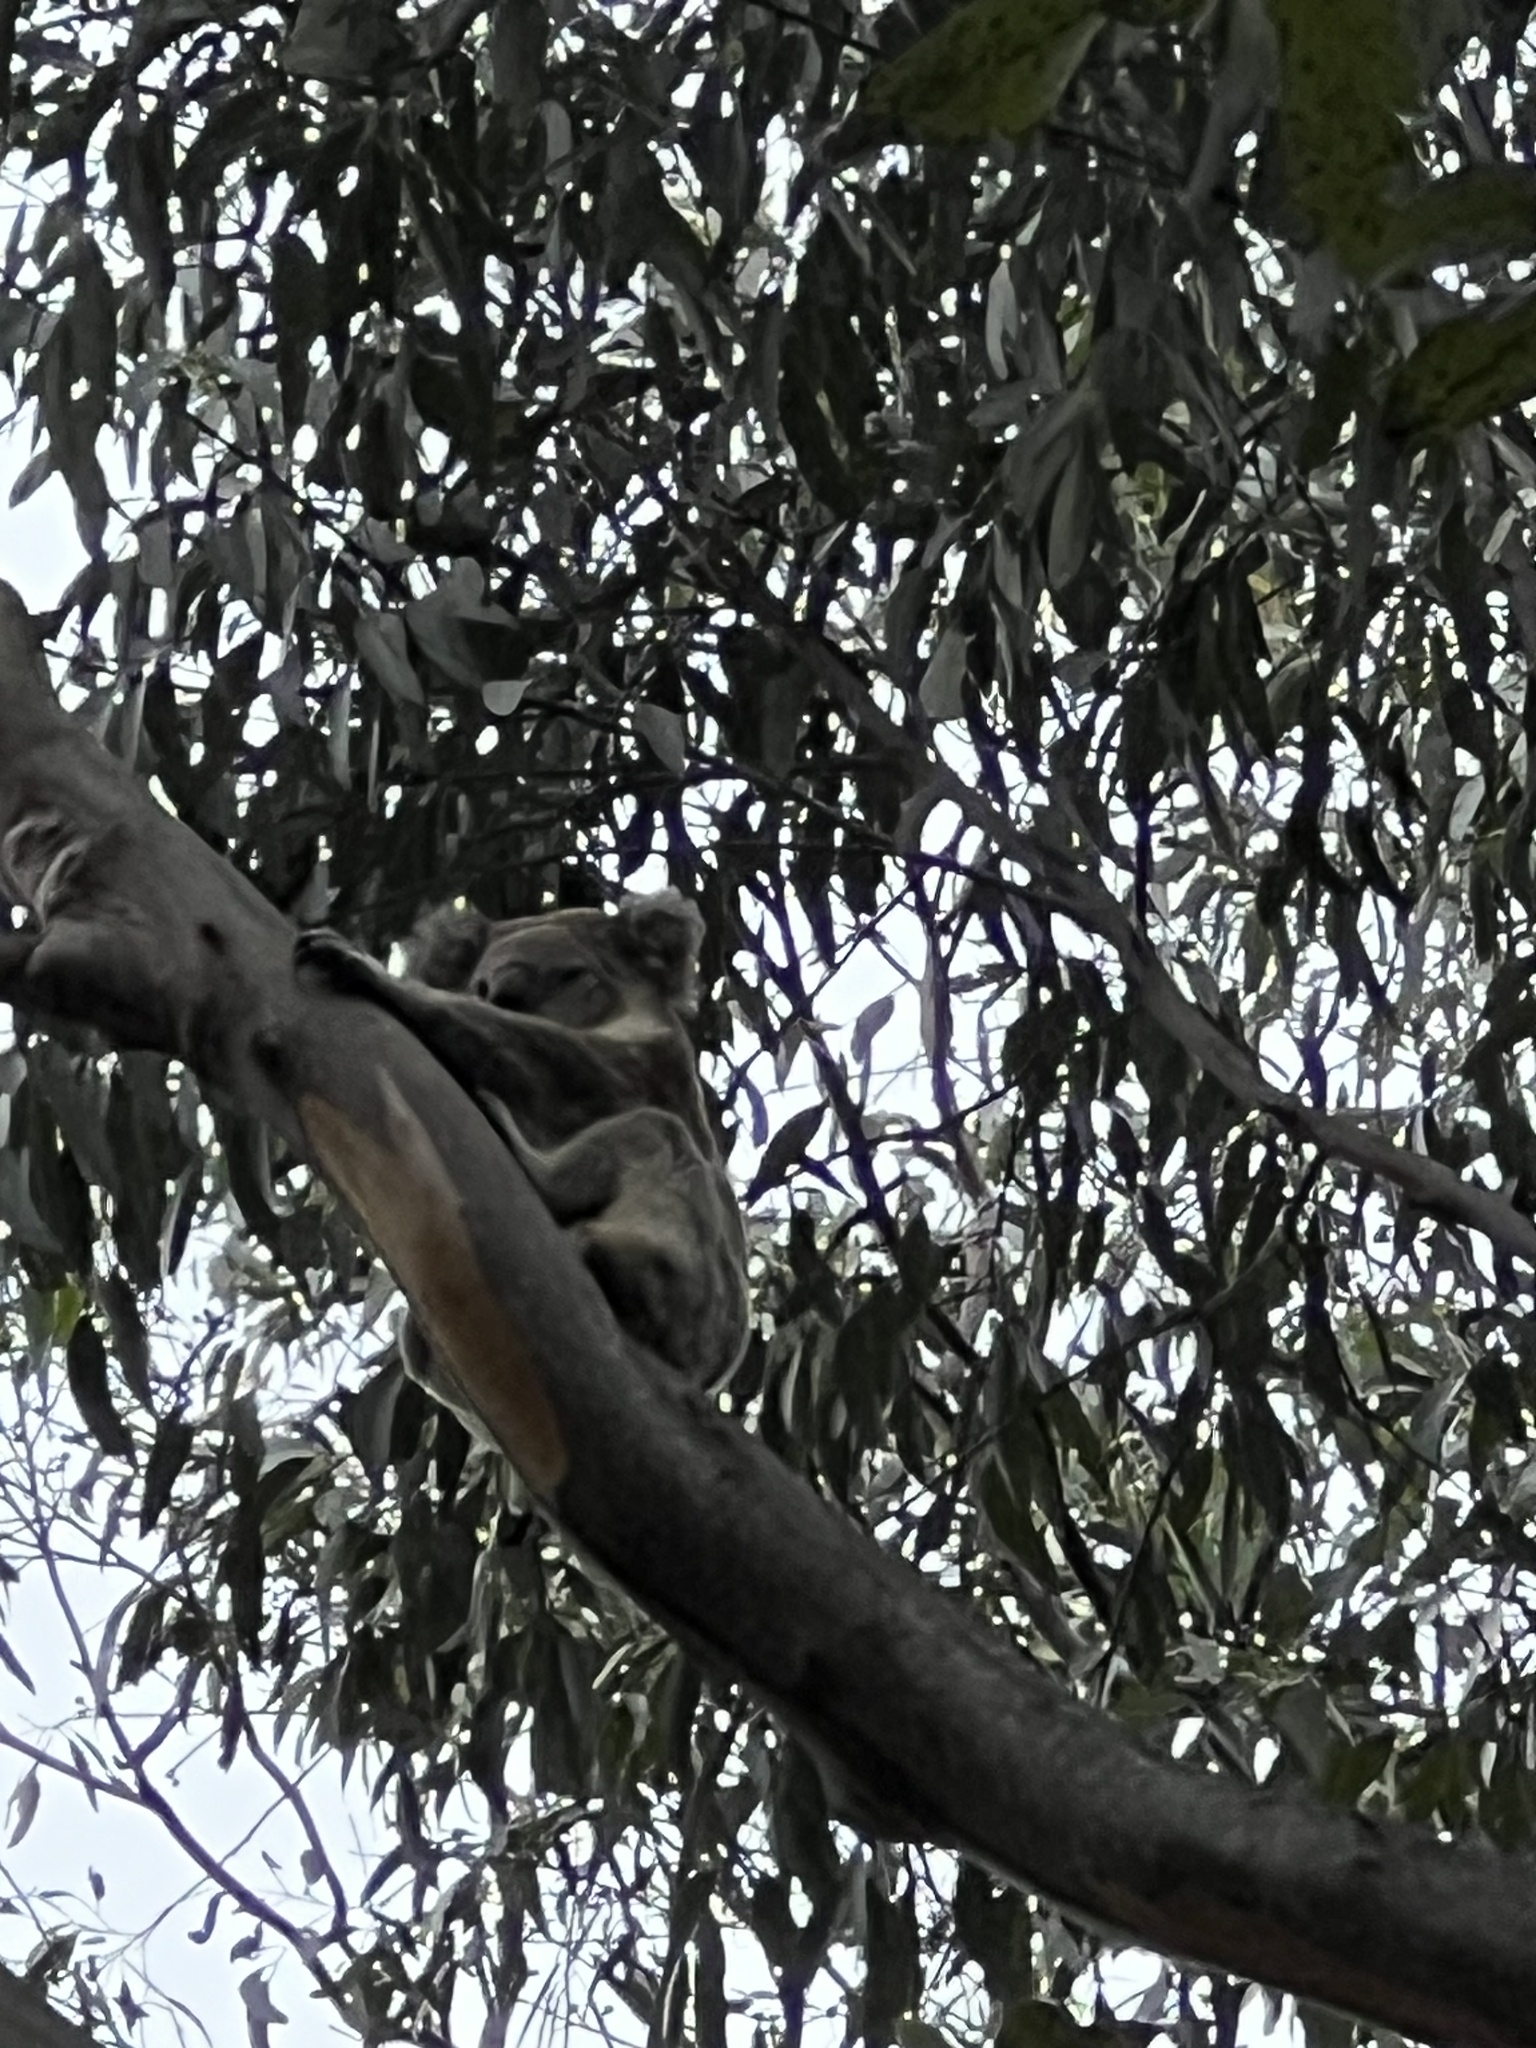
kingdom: Animalia
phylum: Chordata
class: Mammalia
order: Diprotodontia
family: Phascolarctidae
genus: Phascolarctos
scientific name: Phascolarctos cinereus
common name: Koala
